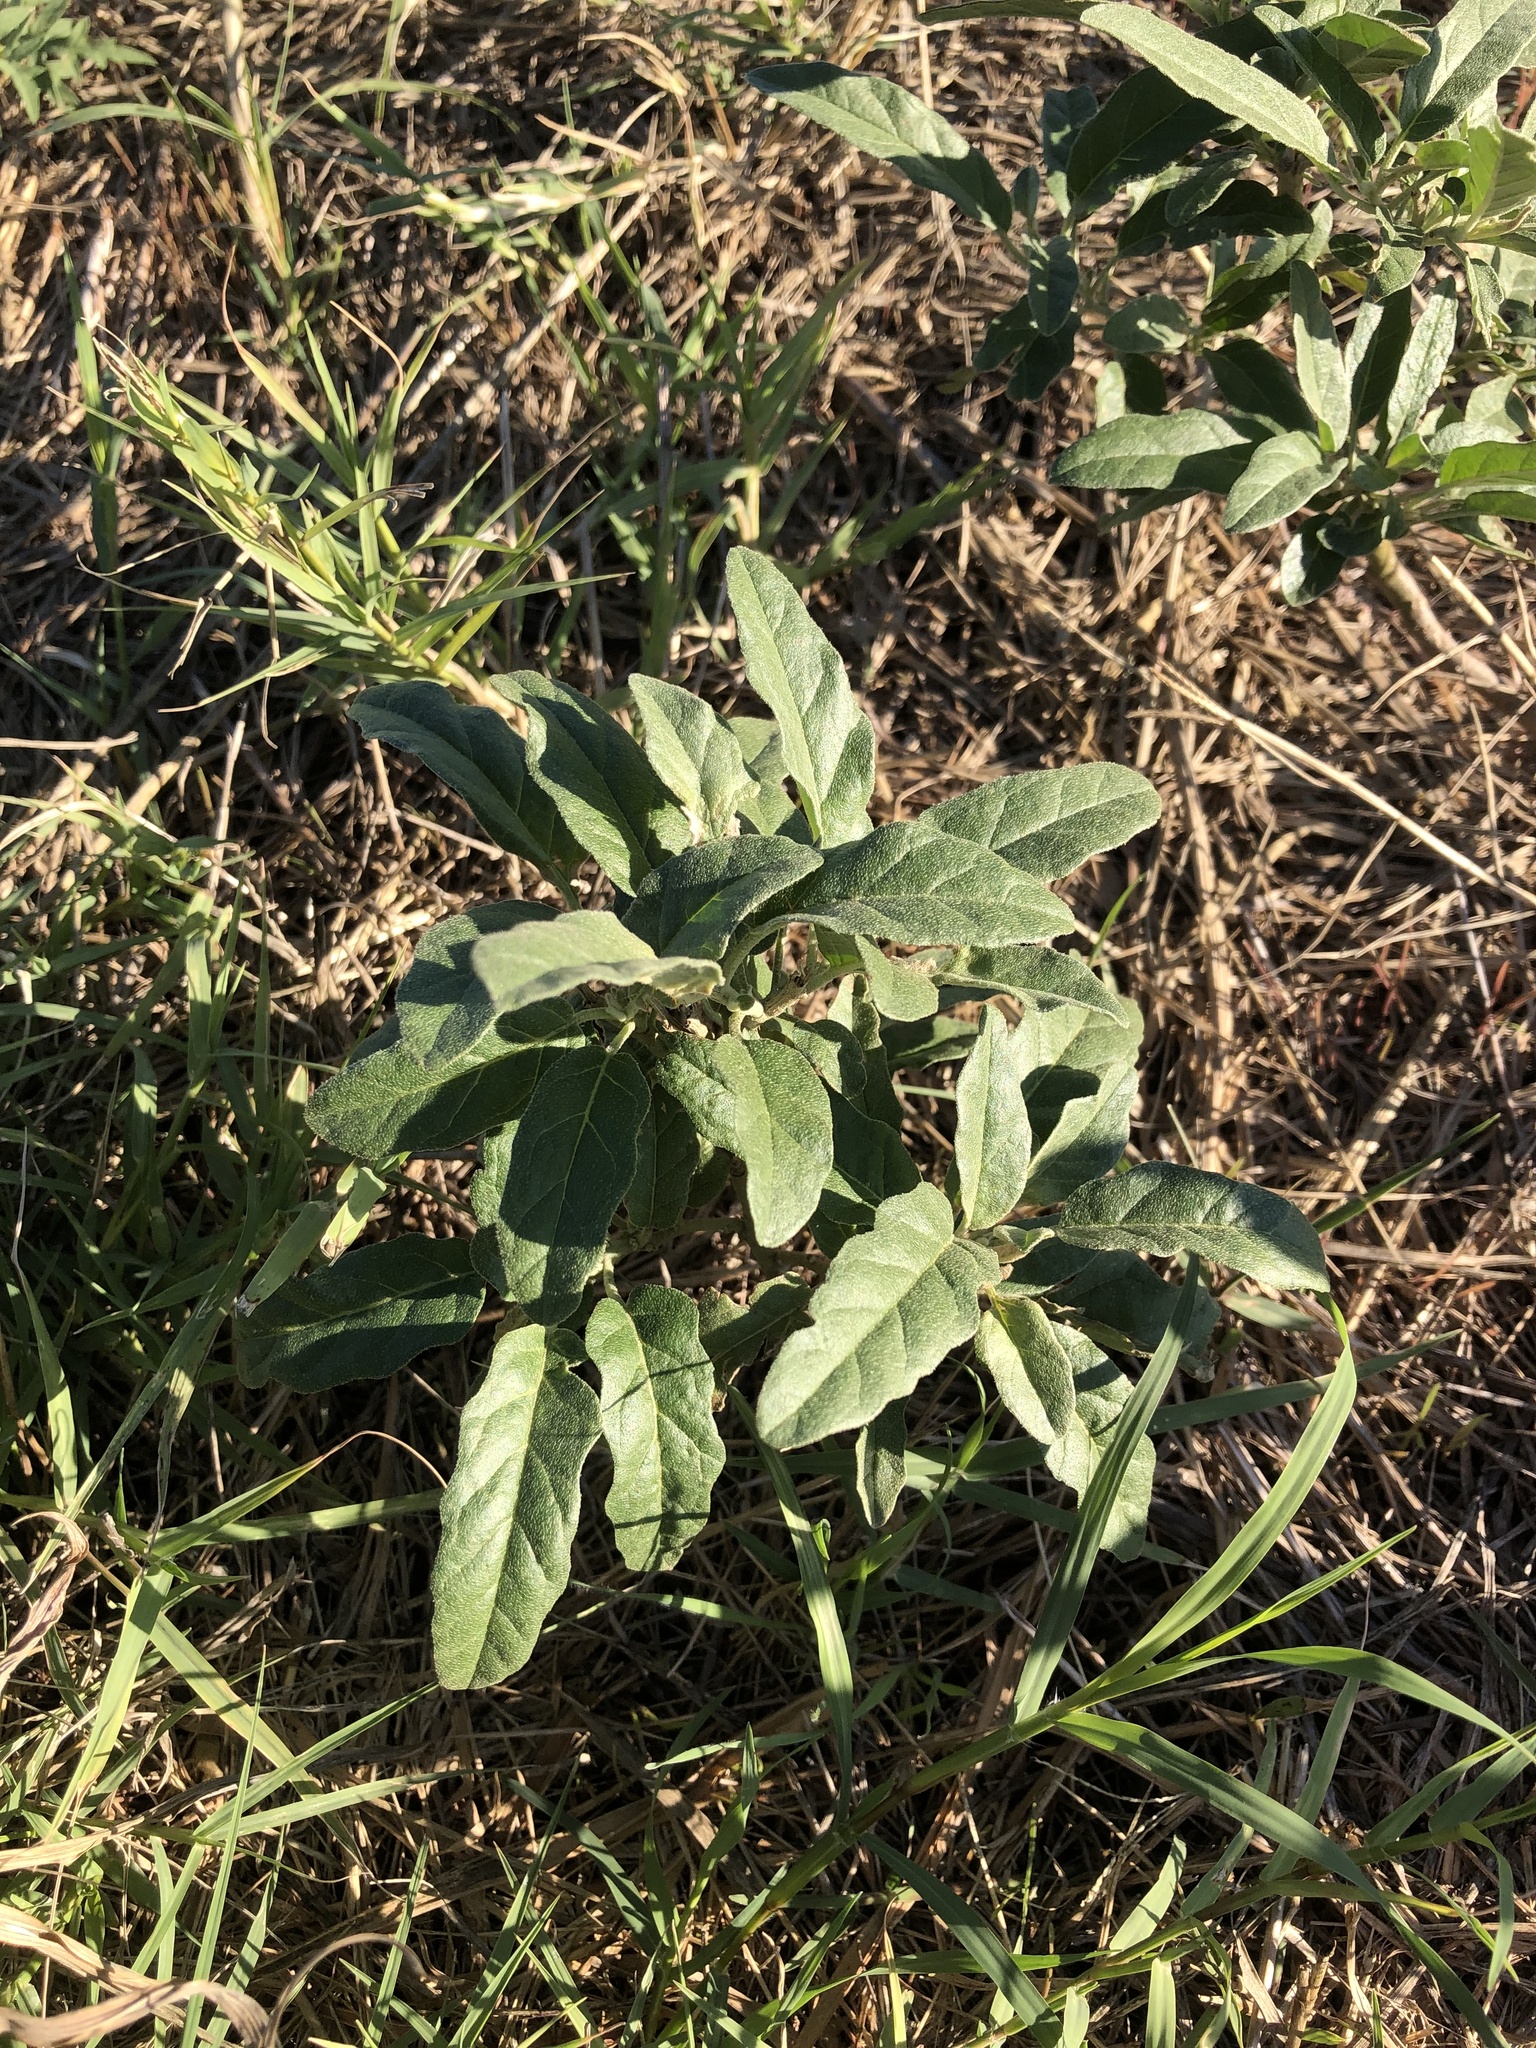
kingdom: Plantae
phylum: Tracheophyta
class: Magnoliopsida
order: Solanales
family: Solanaceae
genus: Solanum
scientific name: Solanum elaeagnifolium
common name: Silverleaf nightshade
